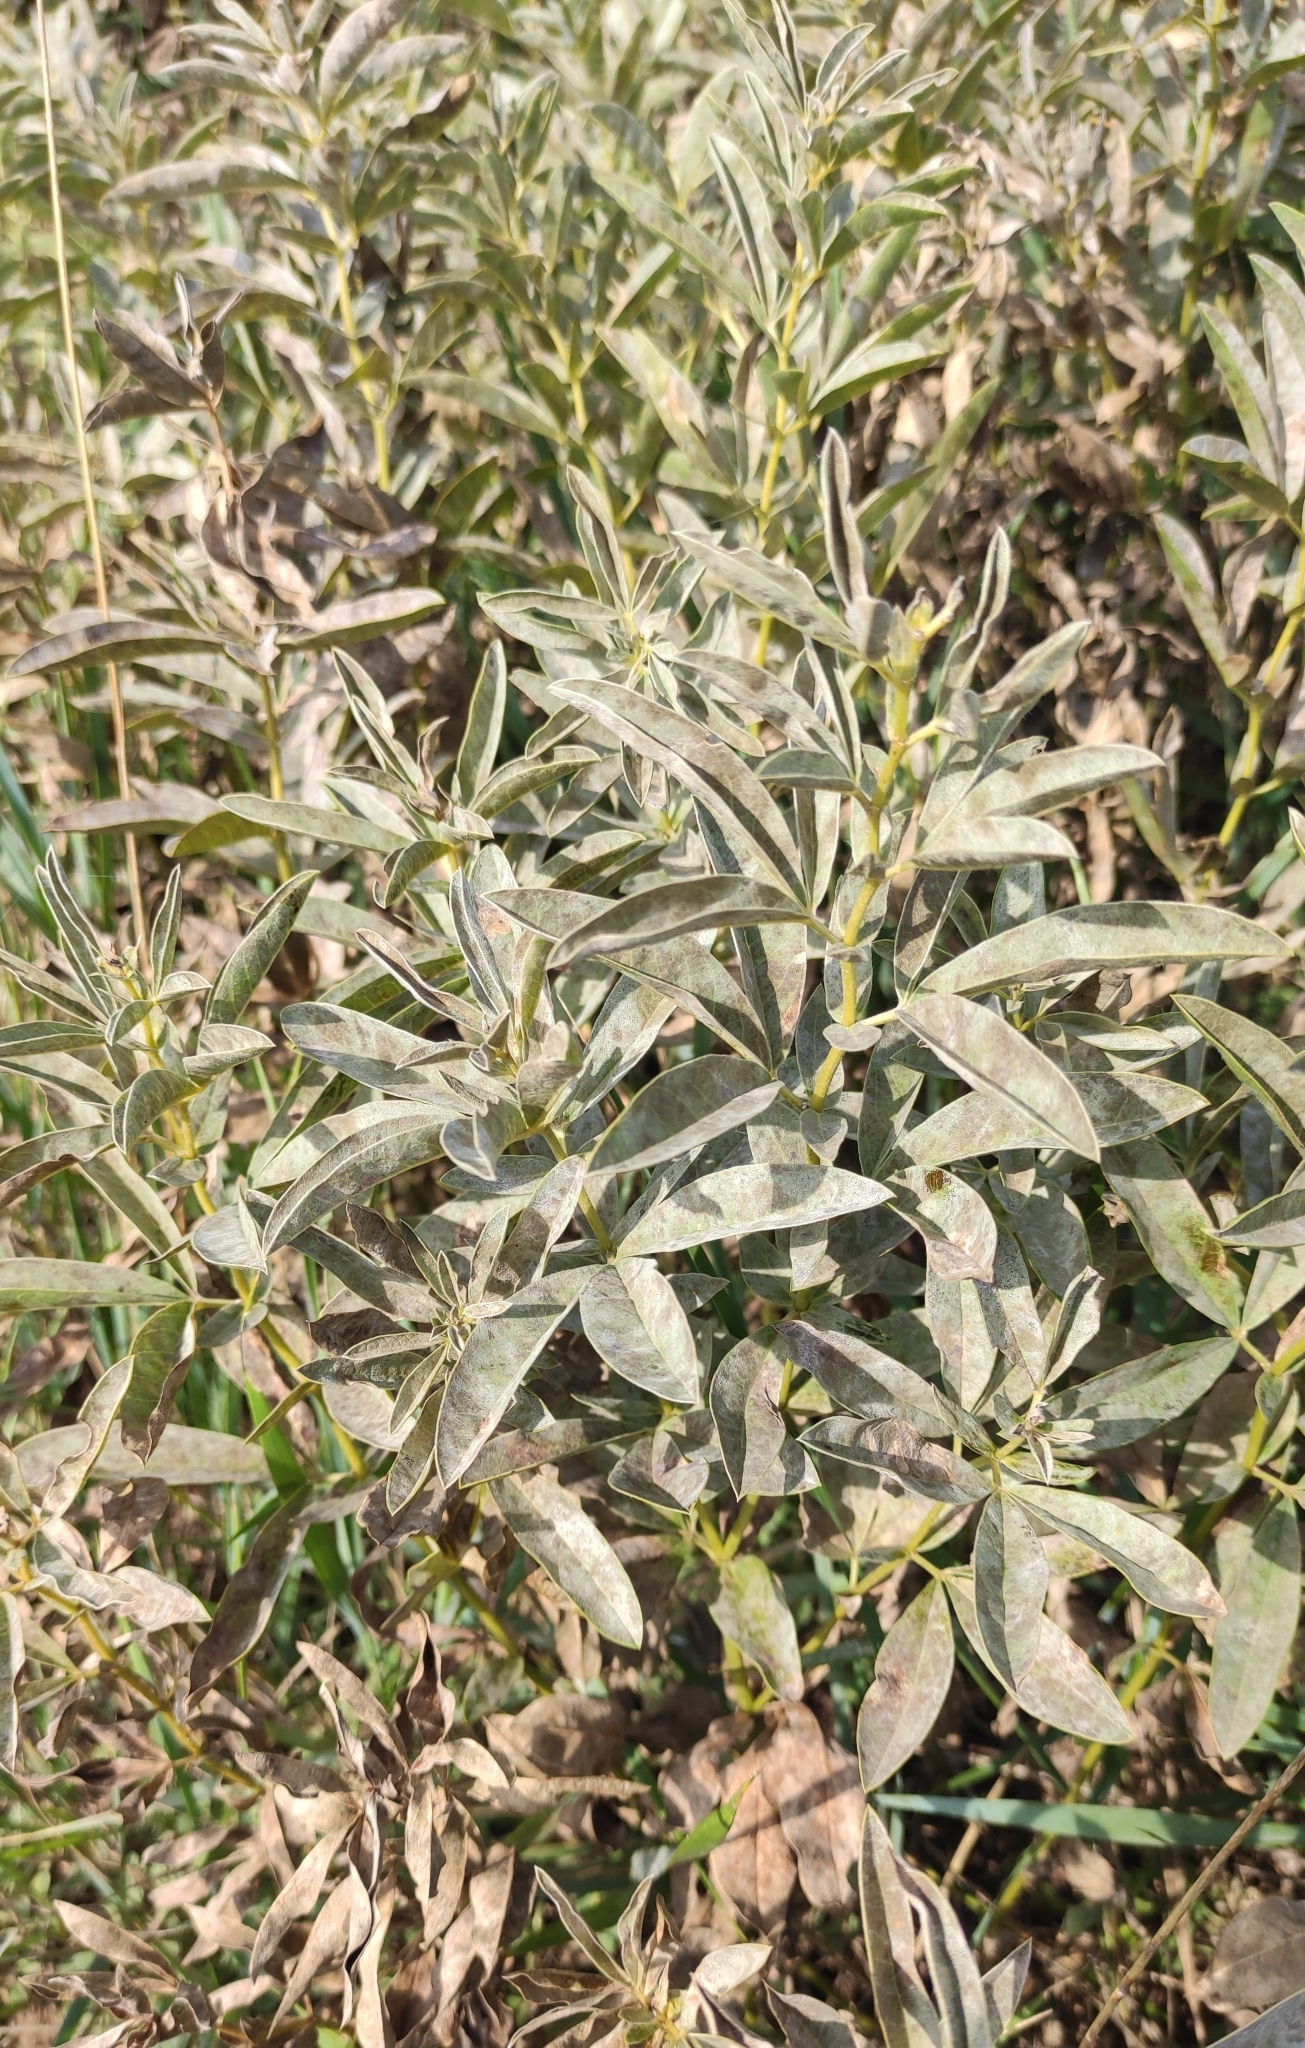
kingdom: Plantae
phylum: Tracheophyta
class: Magnoliopsida
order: Fabales
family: Fabaceae
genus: Thermopsis
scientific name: Thermopsis lanceolata
